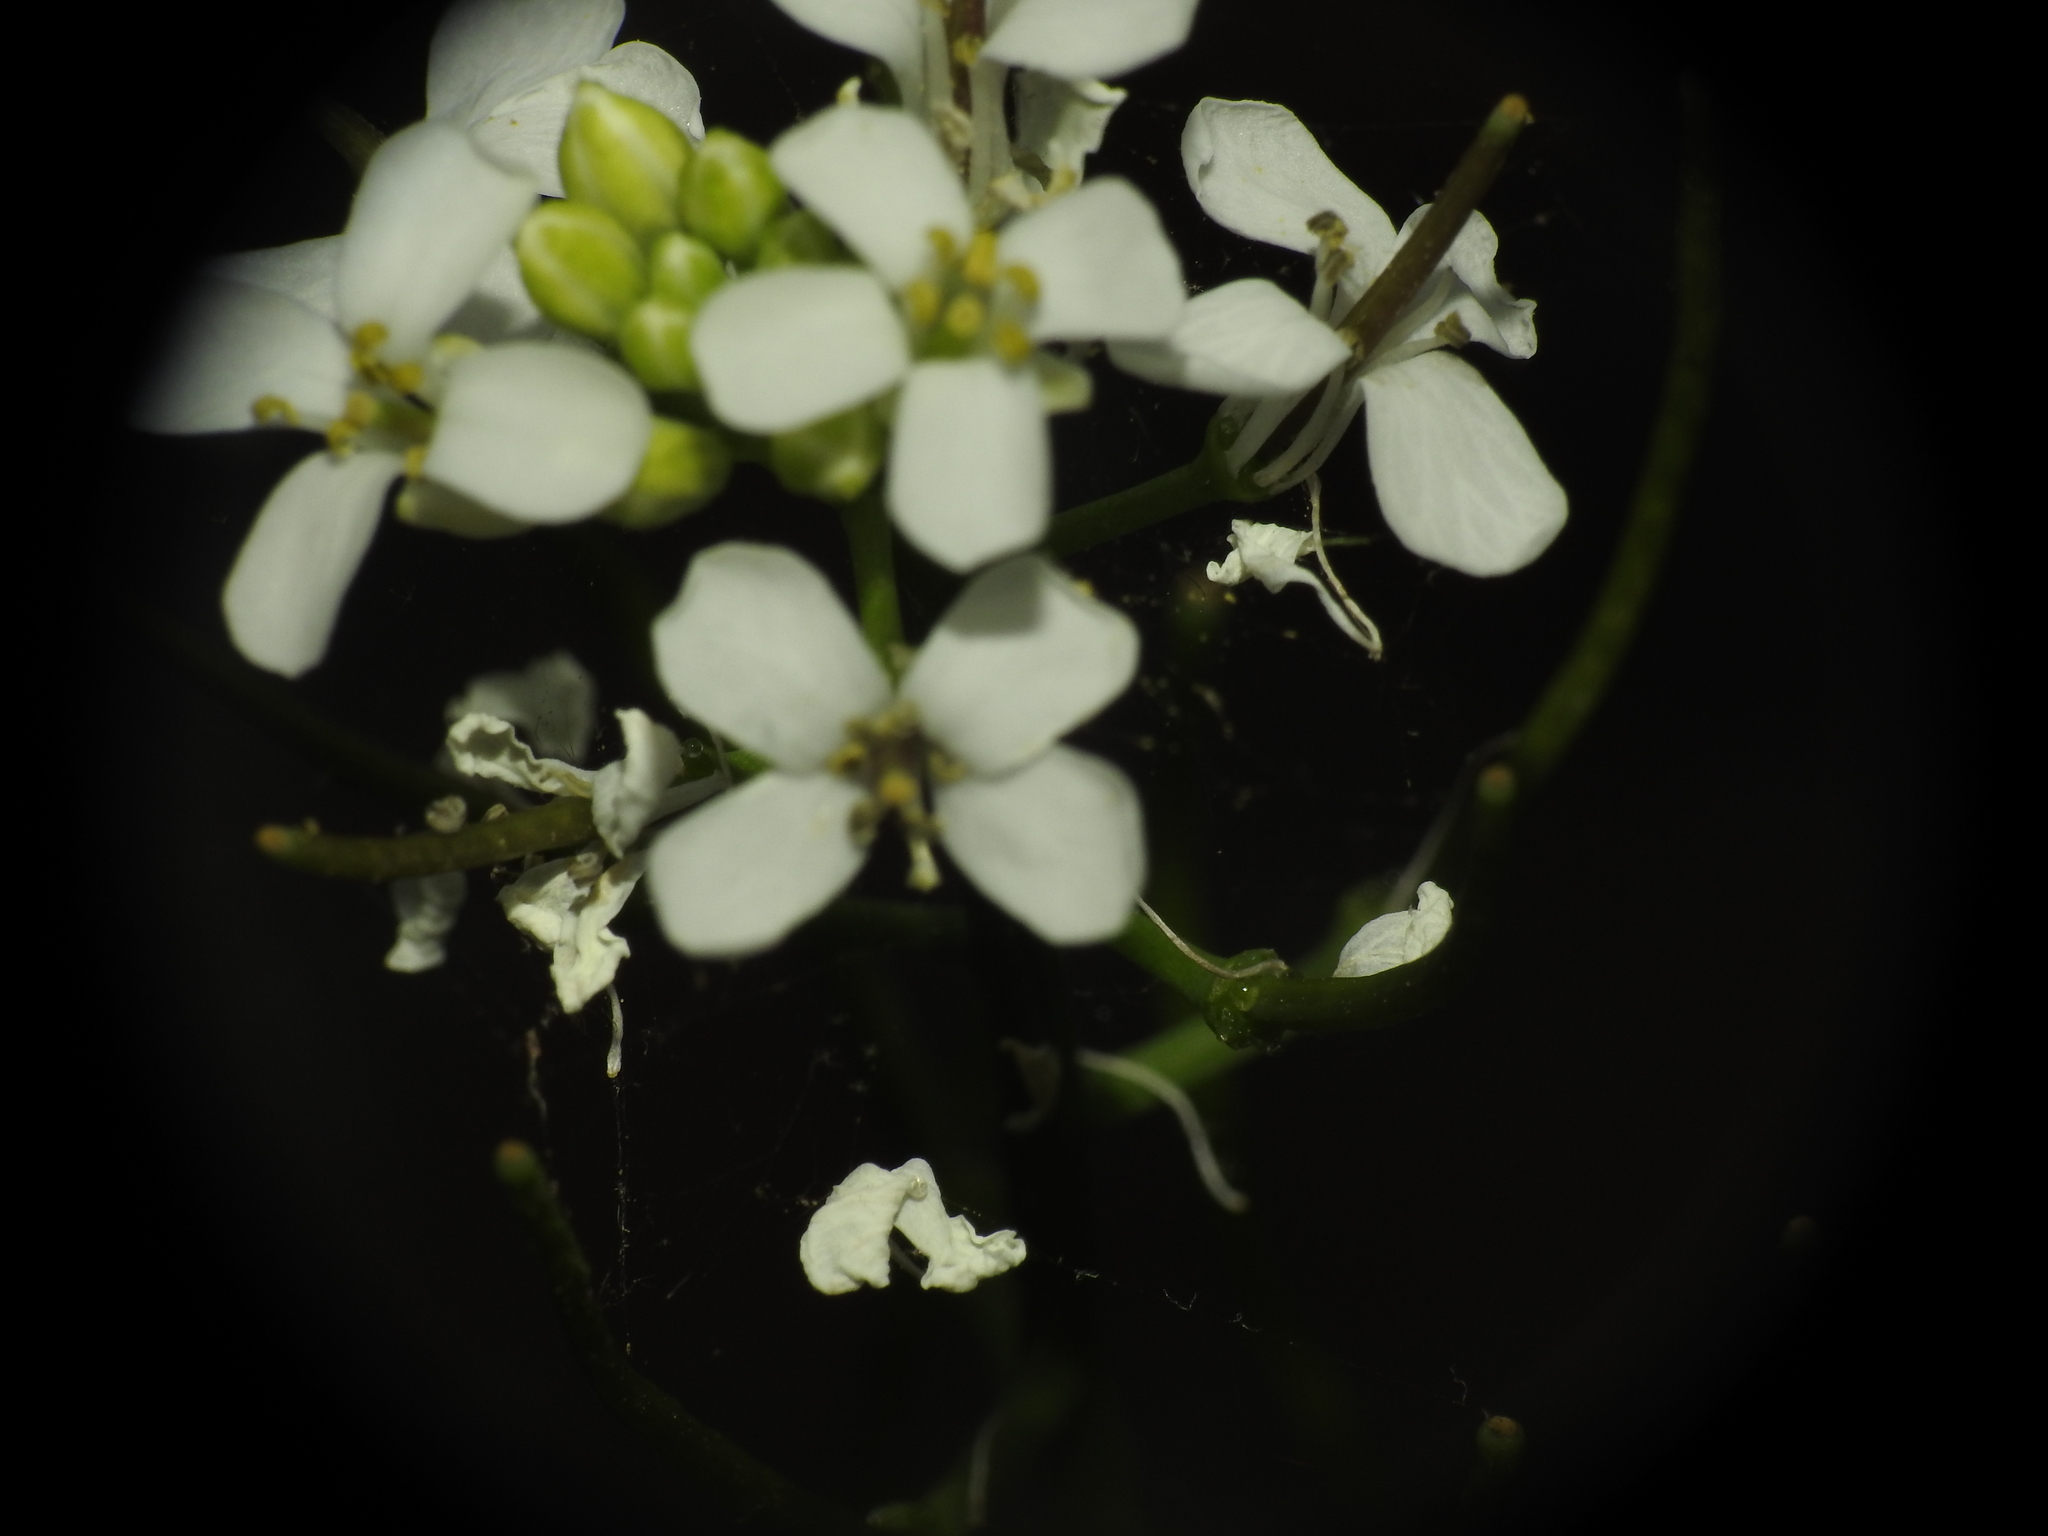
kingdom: Plantae
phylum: Tracheophyta
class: Magnoliopsida
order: Brassicales
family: Brassicaceae
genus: Alliaria
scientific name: Alliaria petiolata
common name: Garlic mustard
